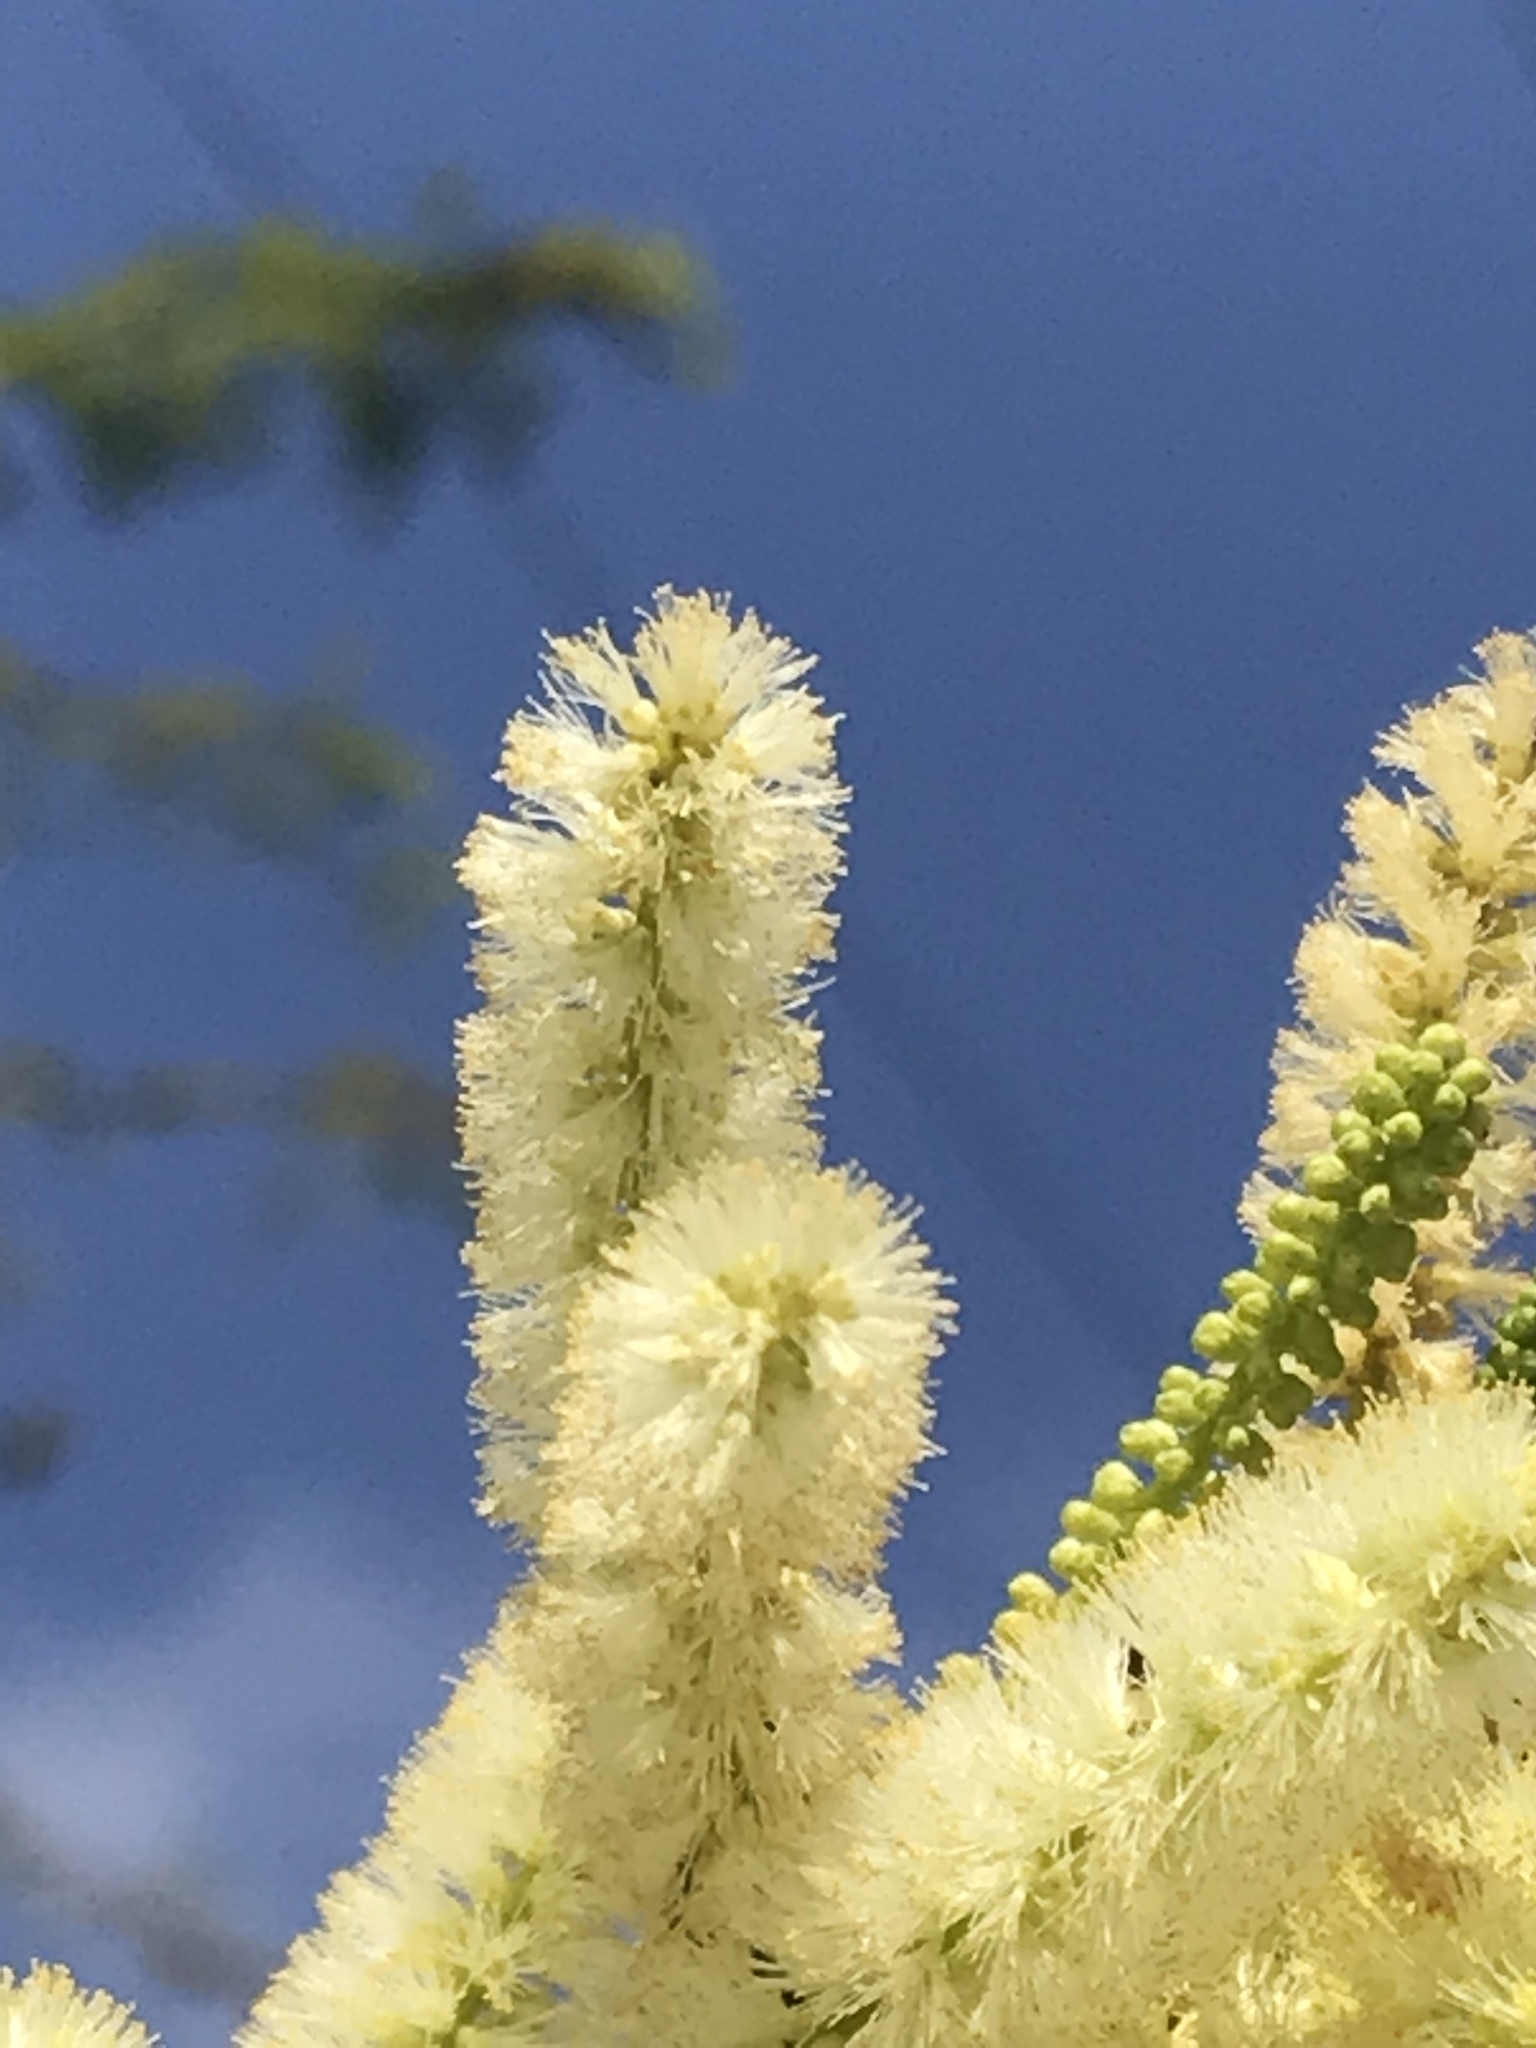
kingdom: Plantae
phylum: Tracheophyta
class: Magnoliopsida
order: Fabales
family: Fabaceae
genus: Vachellia
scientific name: Vachellia rigidula
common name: Blackbrush
